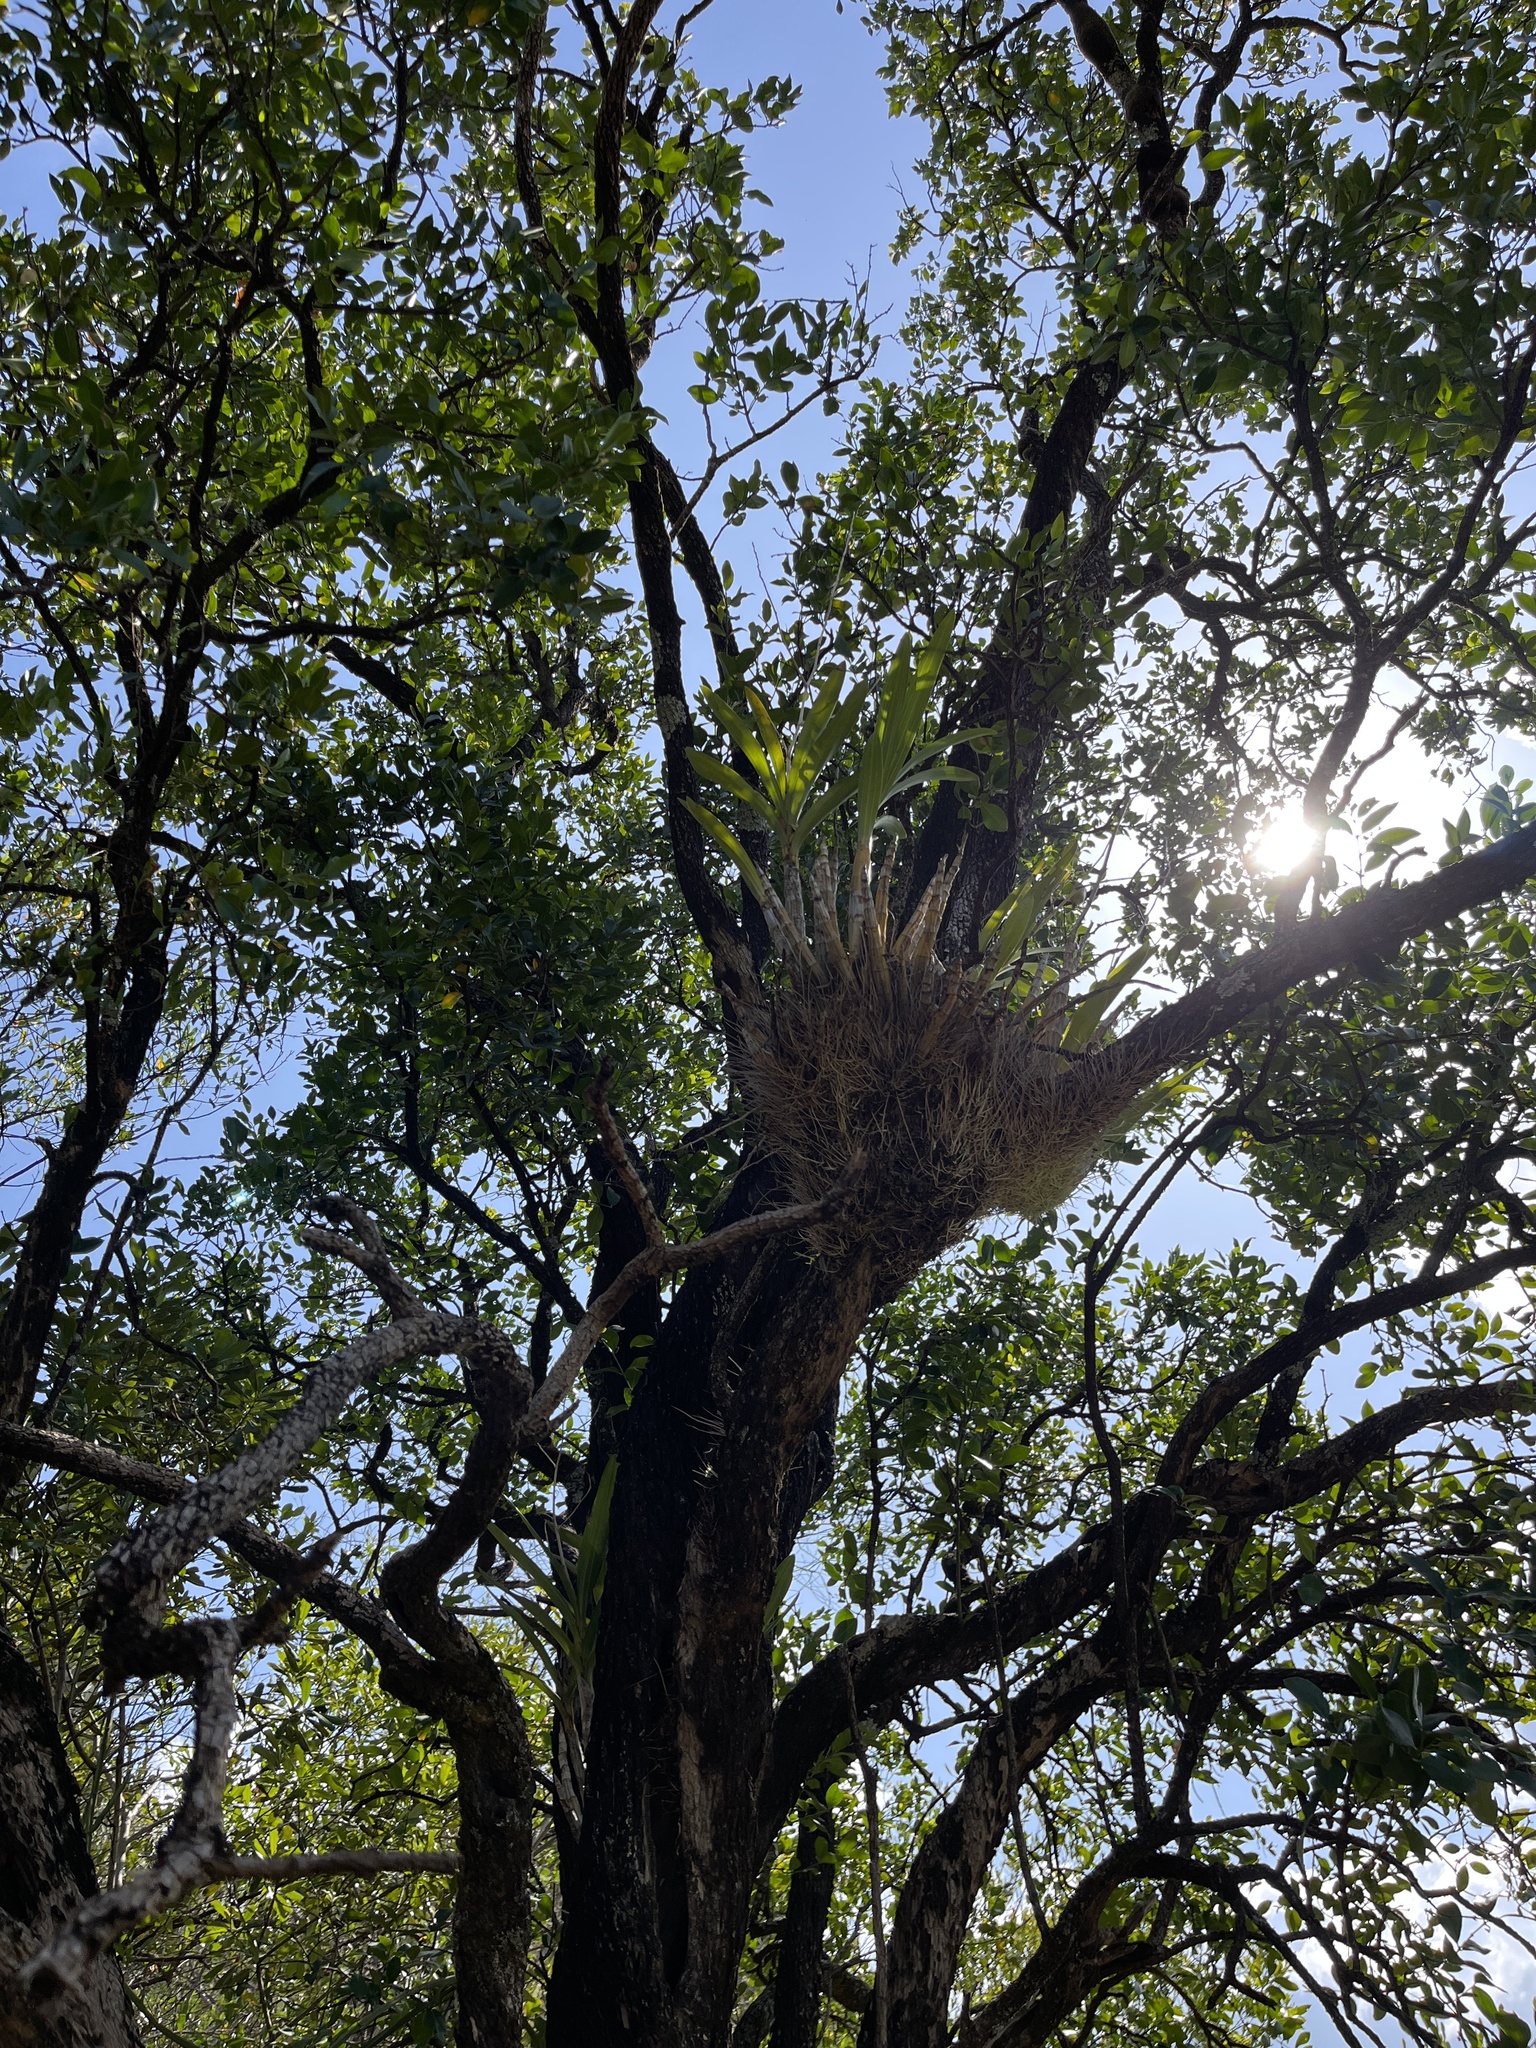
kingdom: Plantae
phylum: Tracheophyta
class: Liliopsida
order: Asparagales
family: Orchidaceae
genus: Ansellia
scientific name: Ansellia africana
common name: African ansellia
